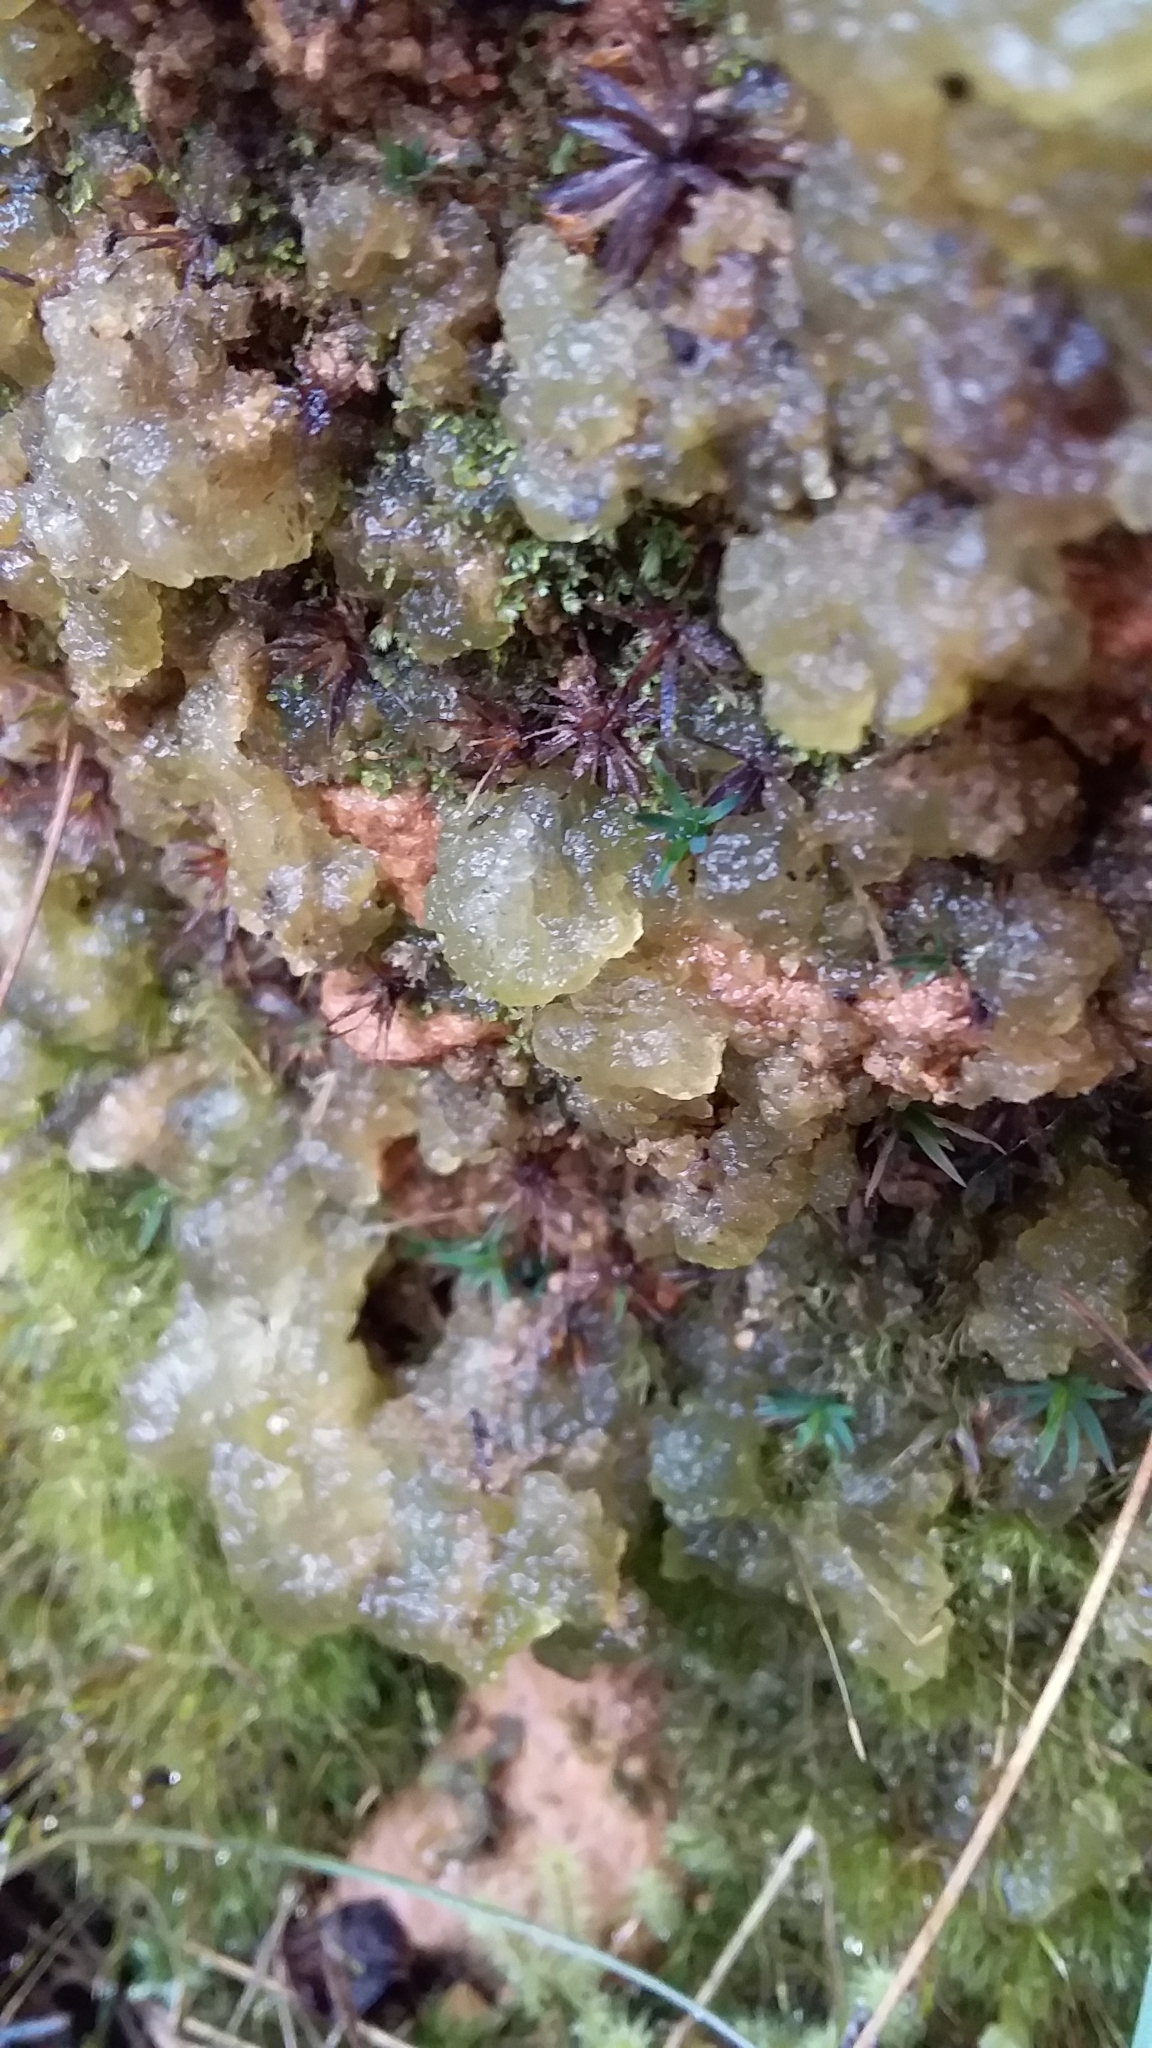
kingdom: Bacteria
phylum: Cyanobacteria
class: Cyanobacteriia
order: Cyanobacteriales
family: Nostocaceae
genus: Nostoc
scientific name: Nostoc commune
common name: Star jelly
